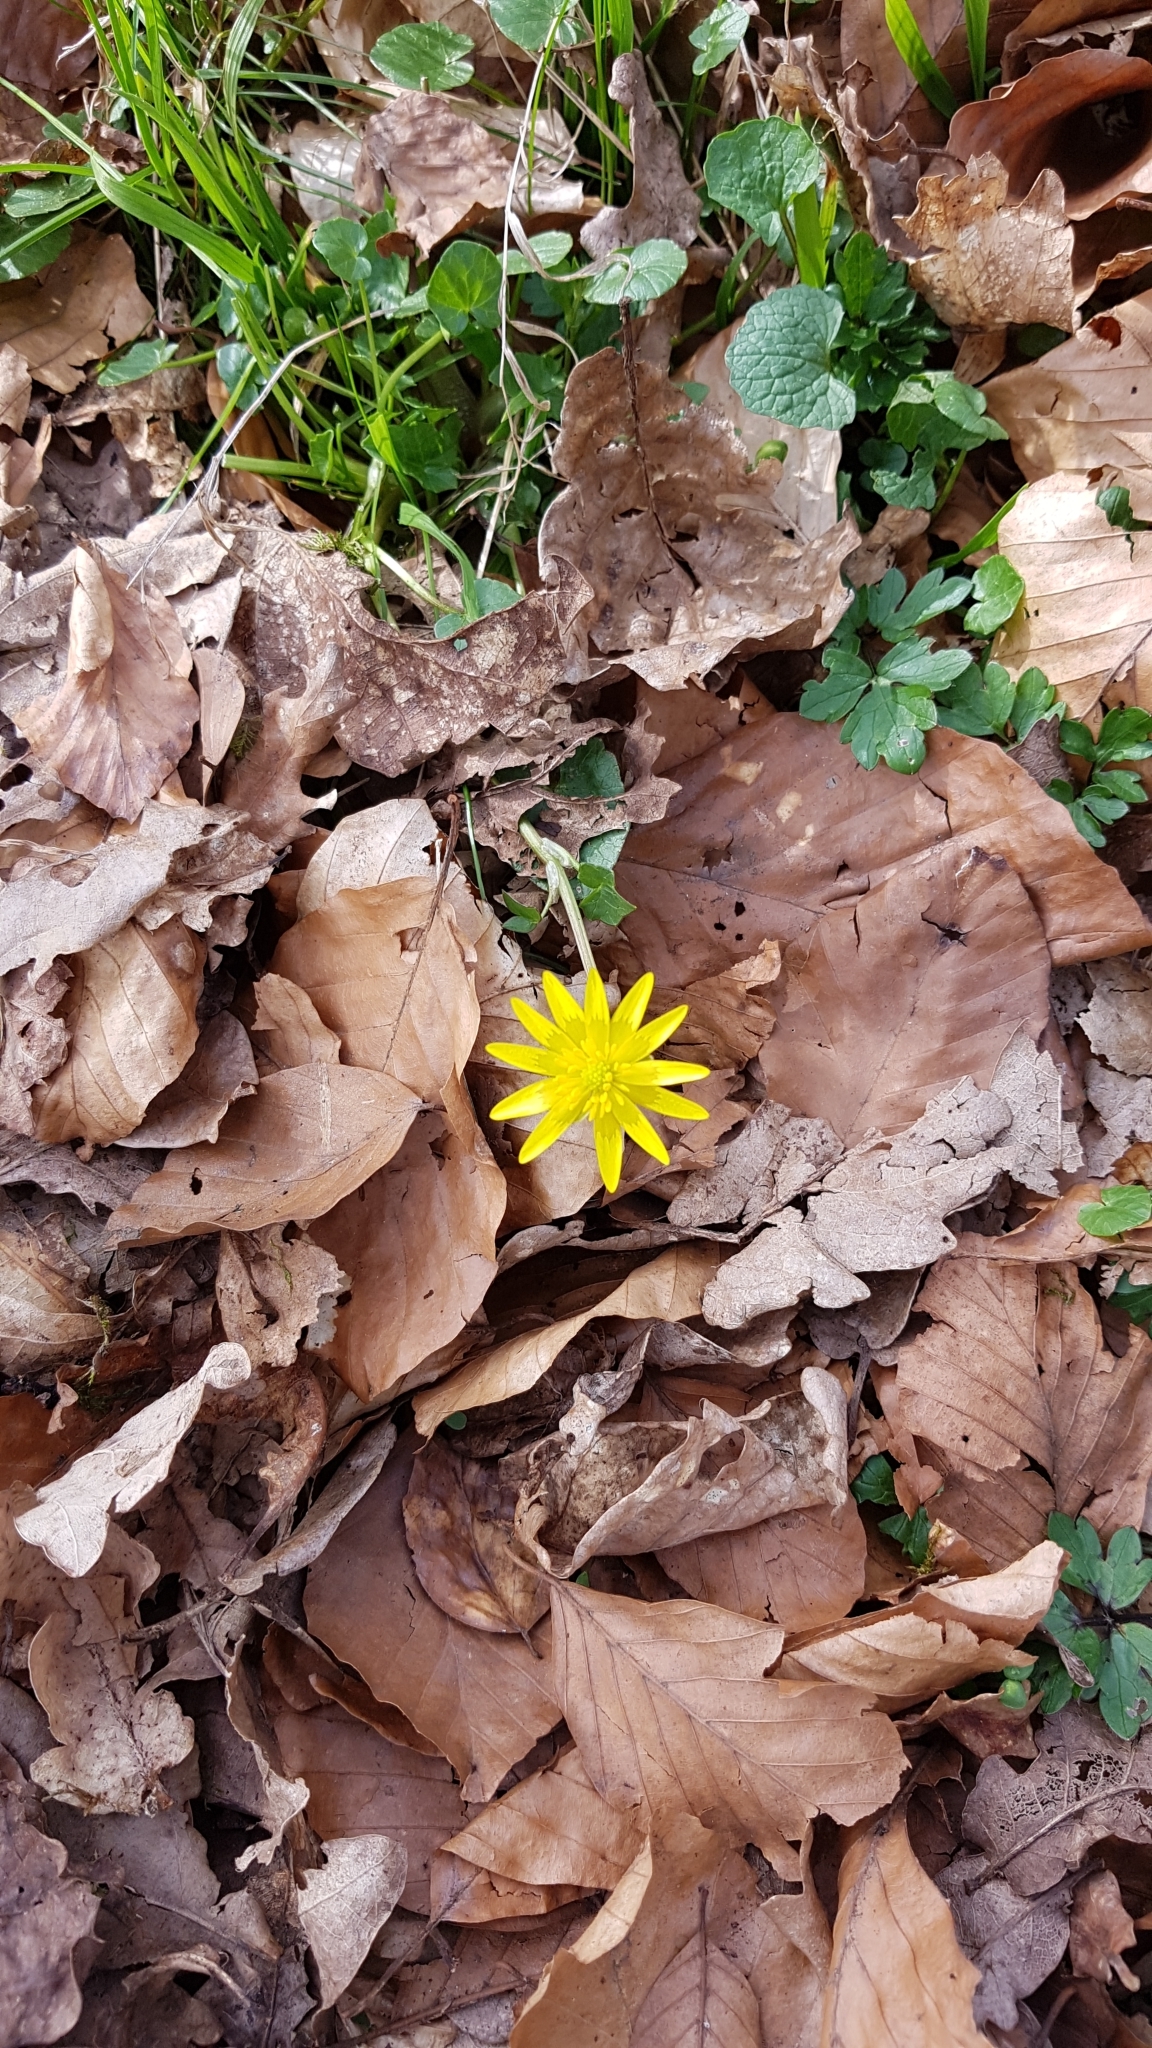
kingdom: Plantae
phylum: Tracheophyta
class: Magnoliopsida
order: Ranunculales
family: Ranunculaceae
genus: Ficaria
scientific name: Ficaria verna
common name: Lesser celandine
